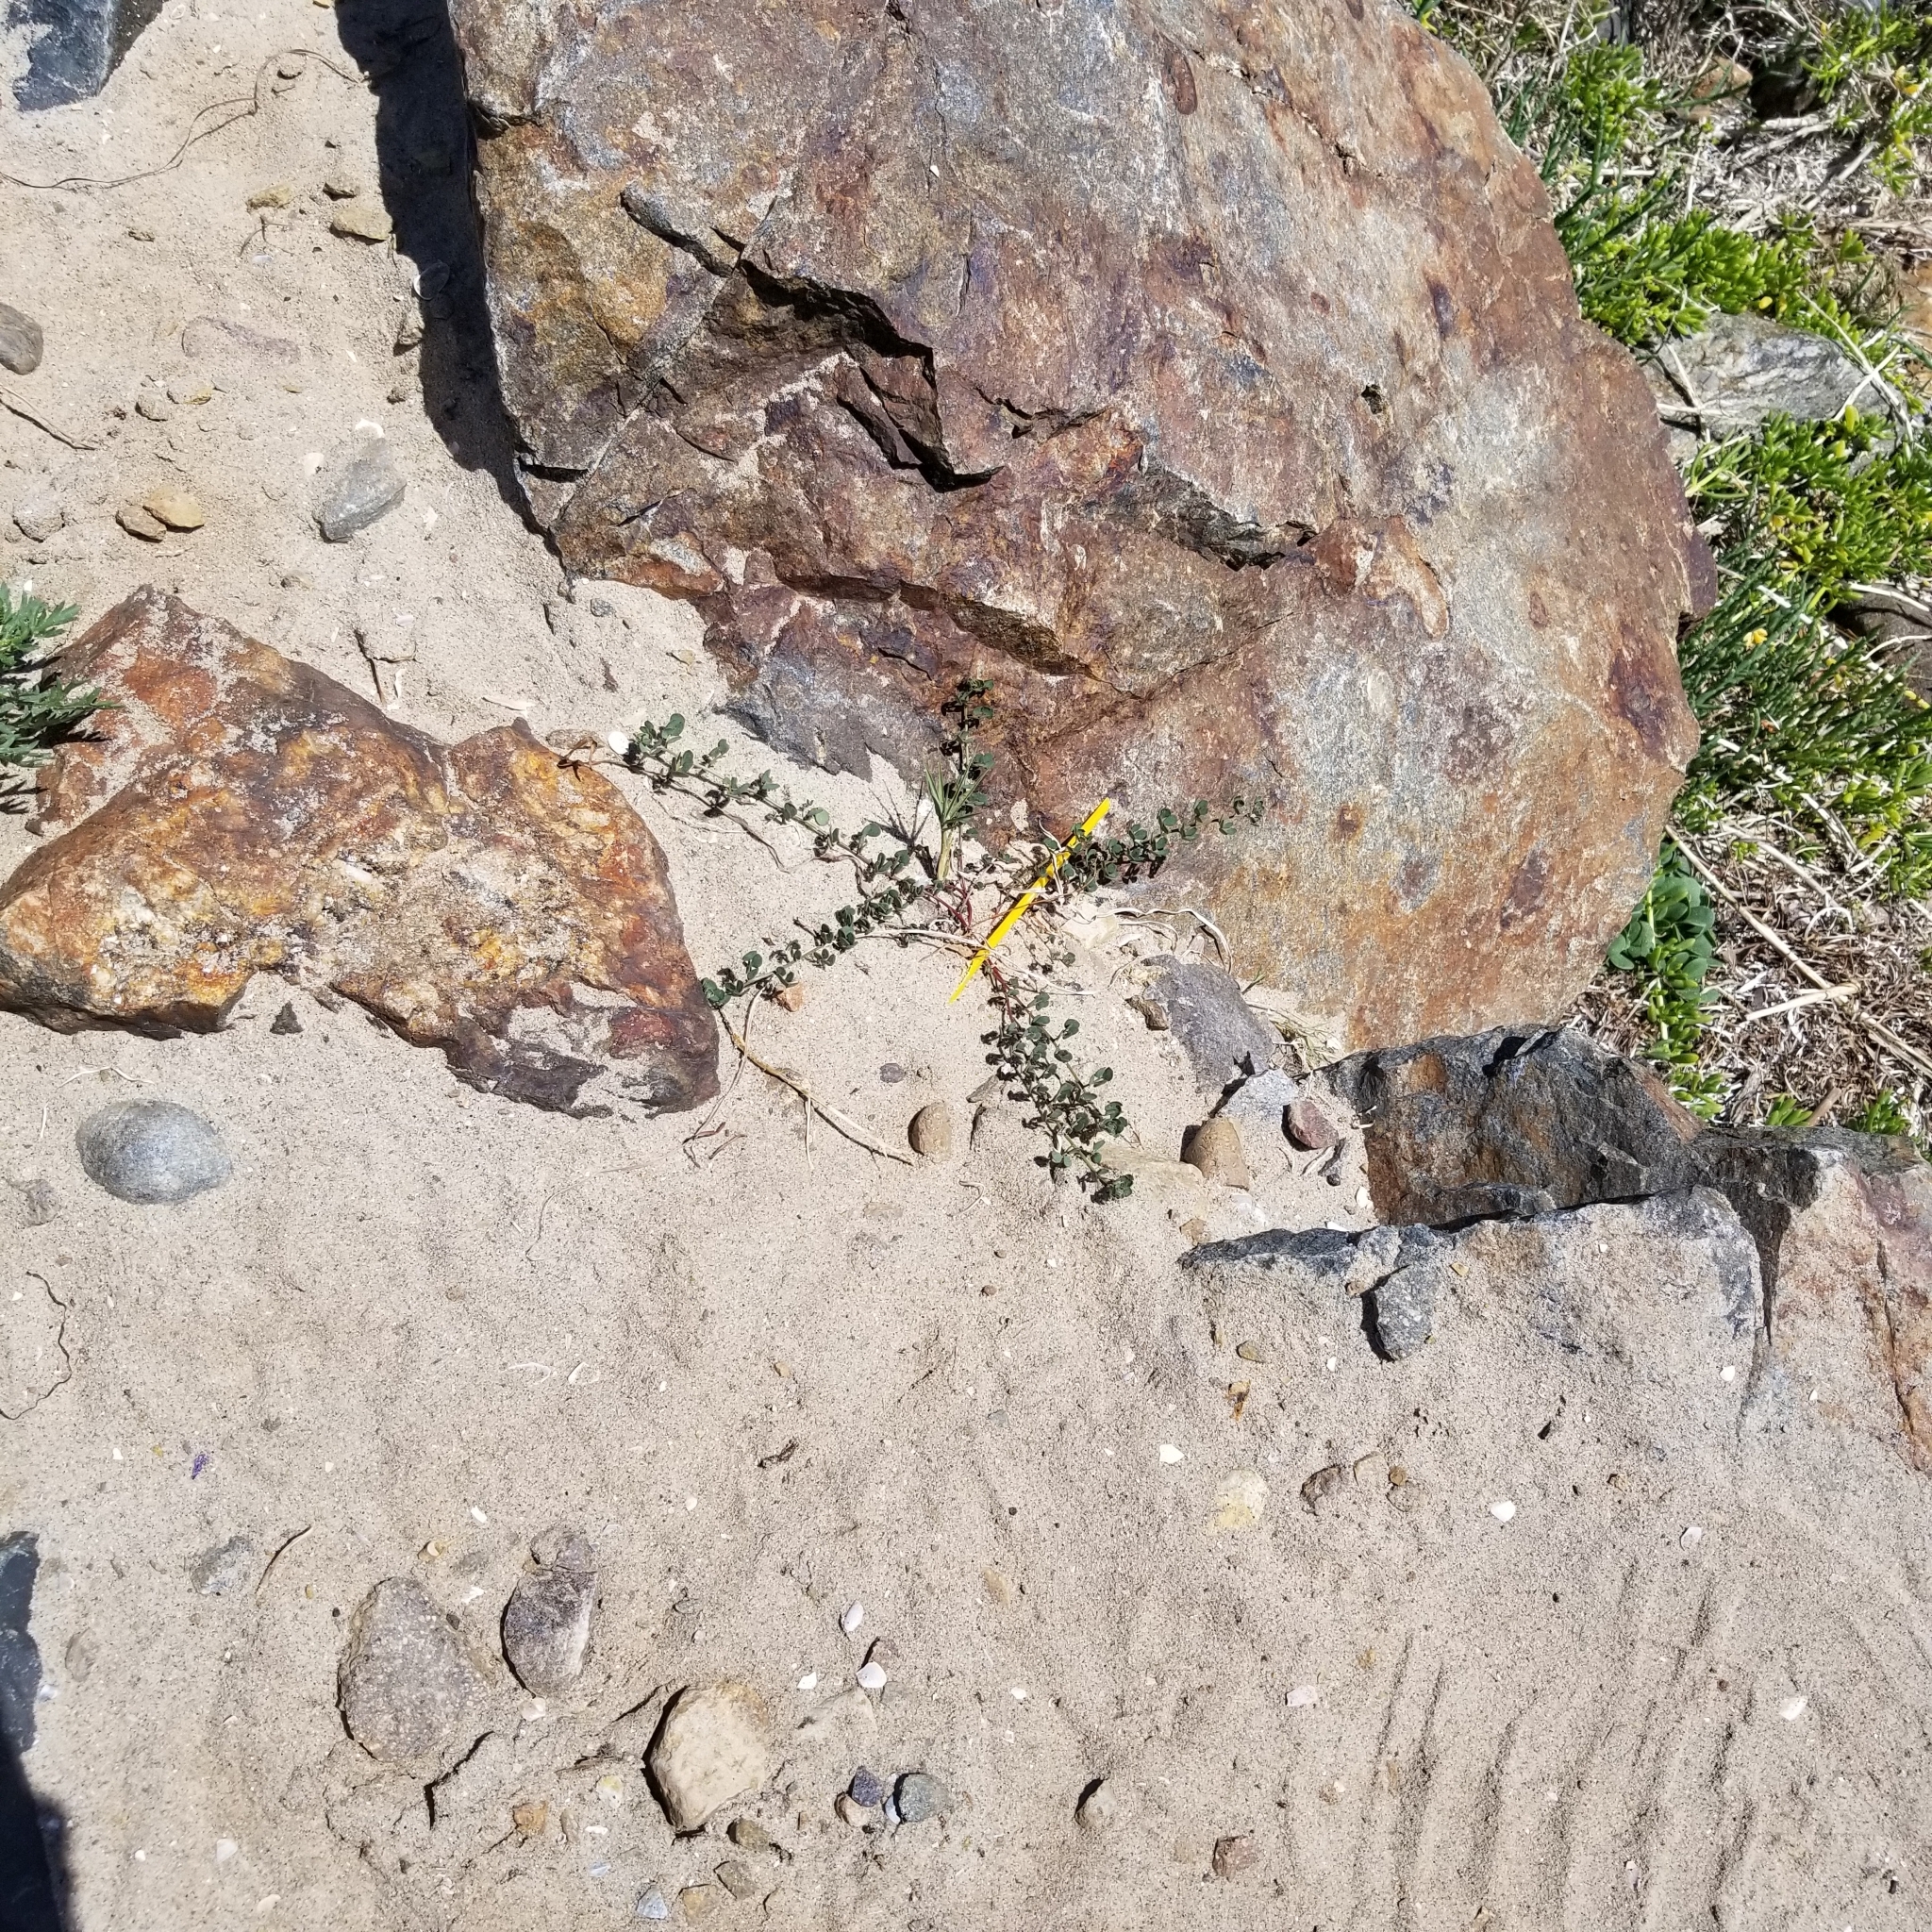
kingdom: Plantae
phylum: Tracheophyta
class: Magnoliopsida
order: Fabales
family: Fabaceae
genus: Acmispon
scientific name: Acmispon prostratus
